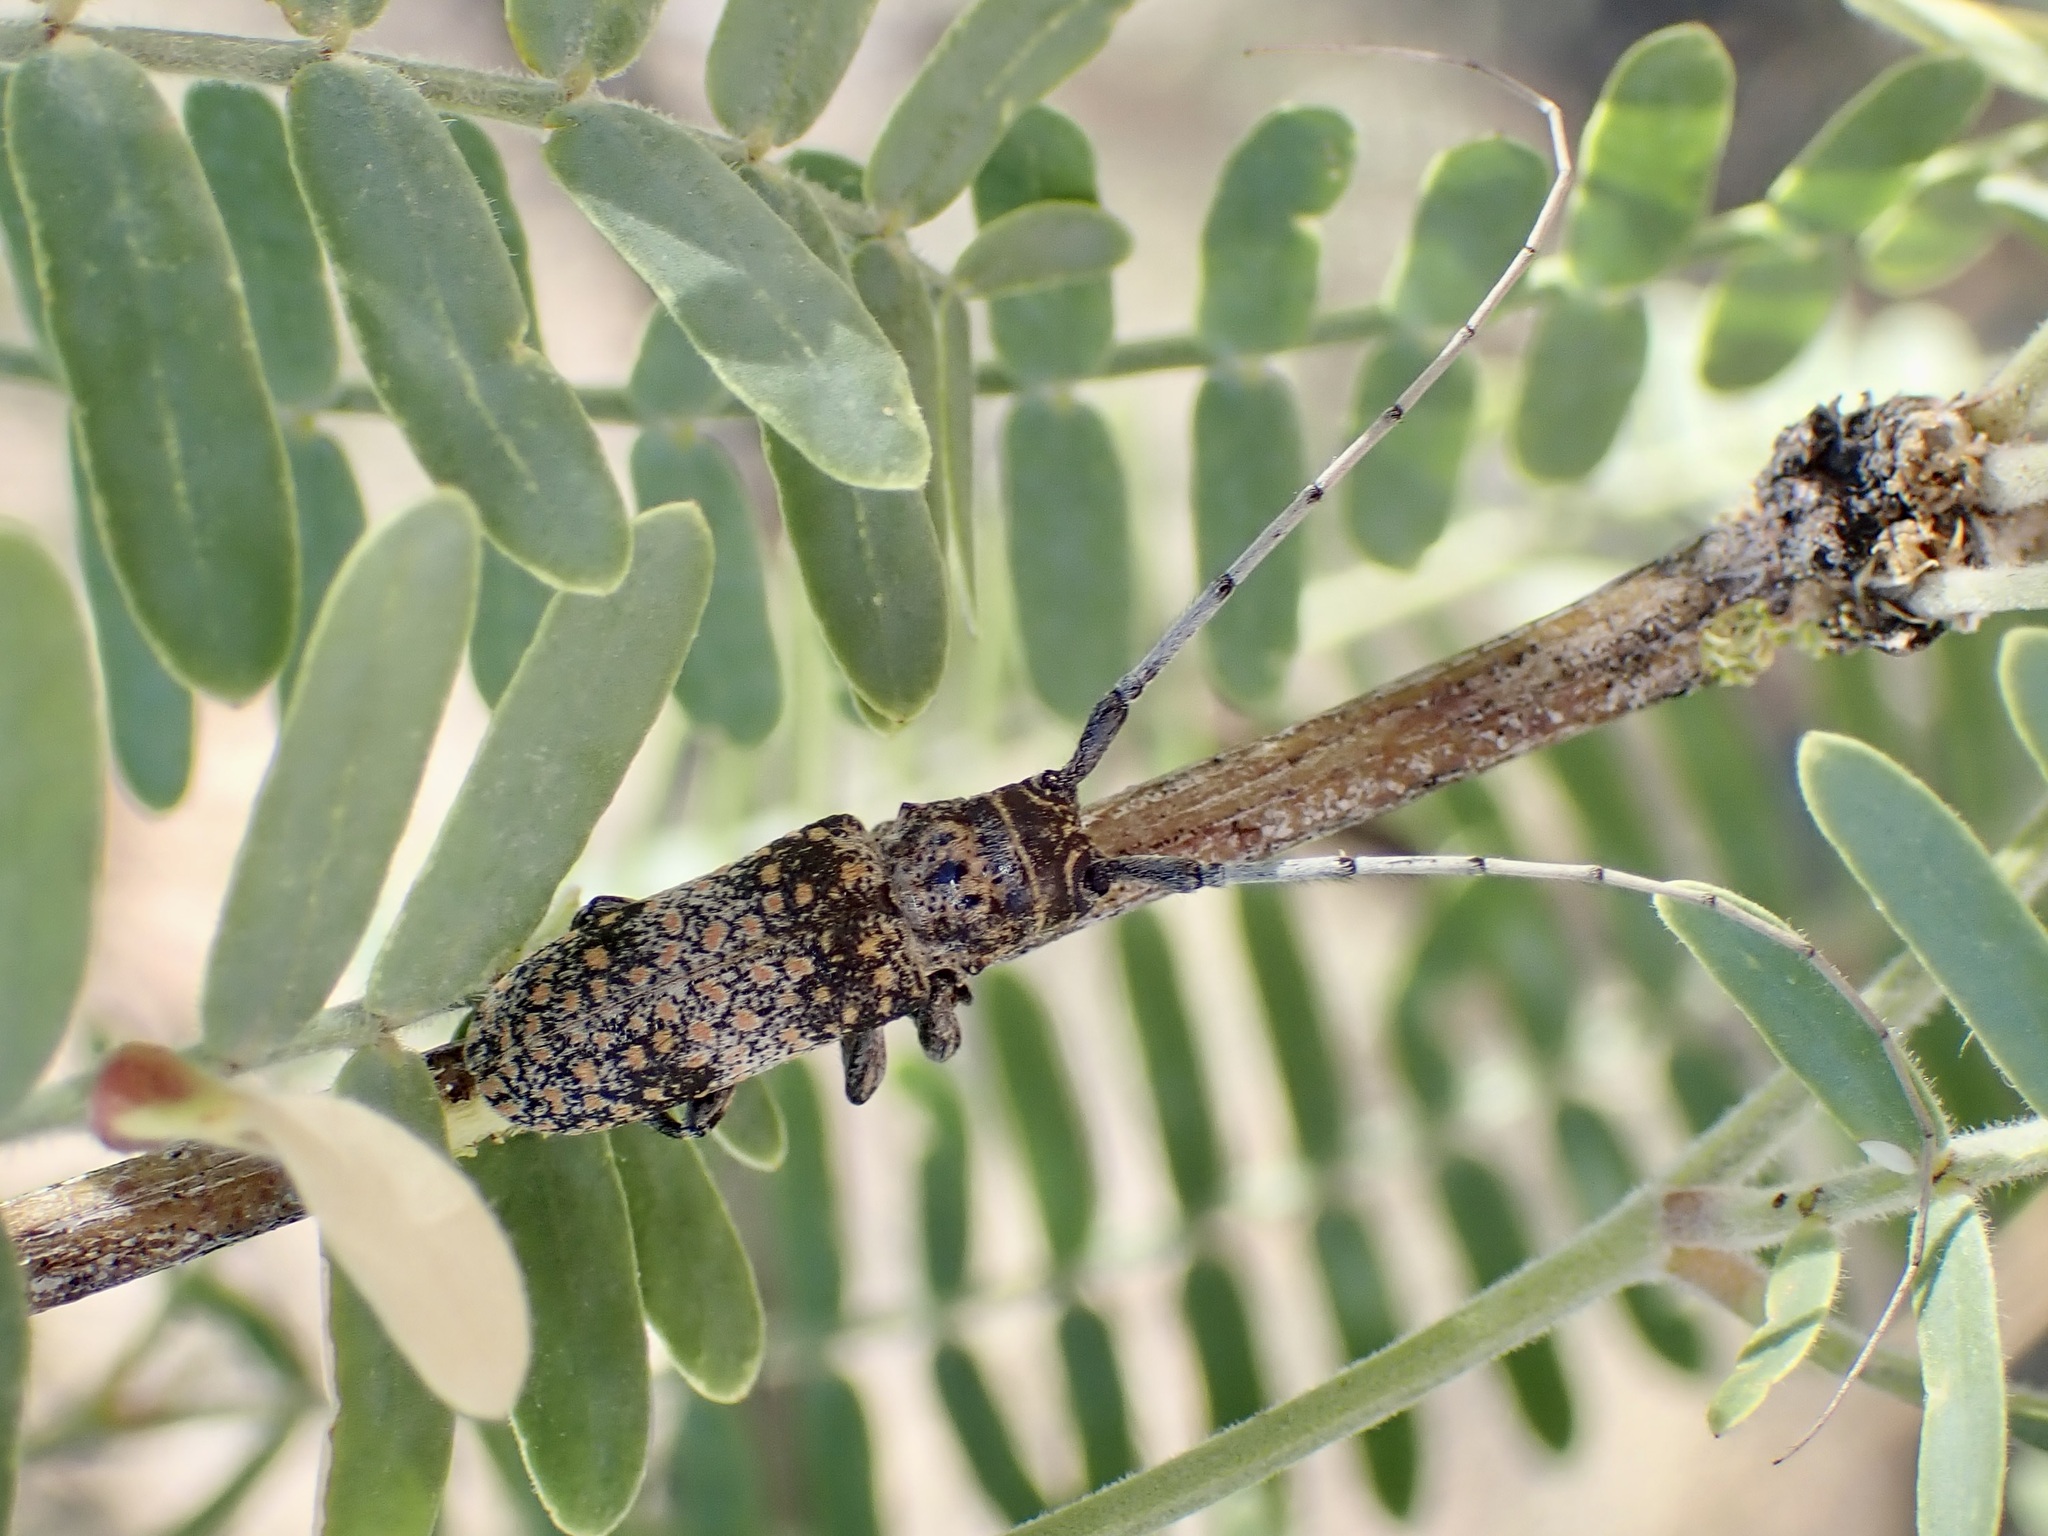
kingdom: Animalia
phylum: Arthropoda
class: Insecta
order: Coleoptera
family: Cerambycidae
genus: Oncideres
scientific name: Oncideres rhodosticta
